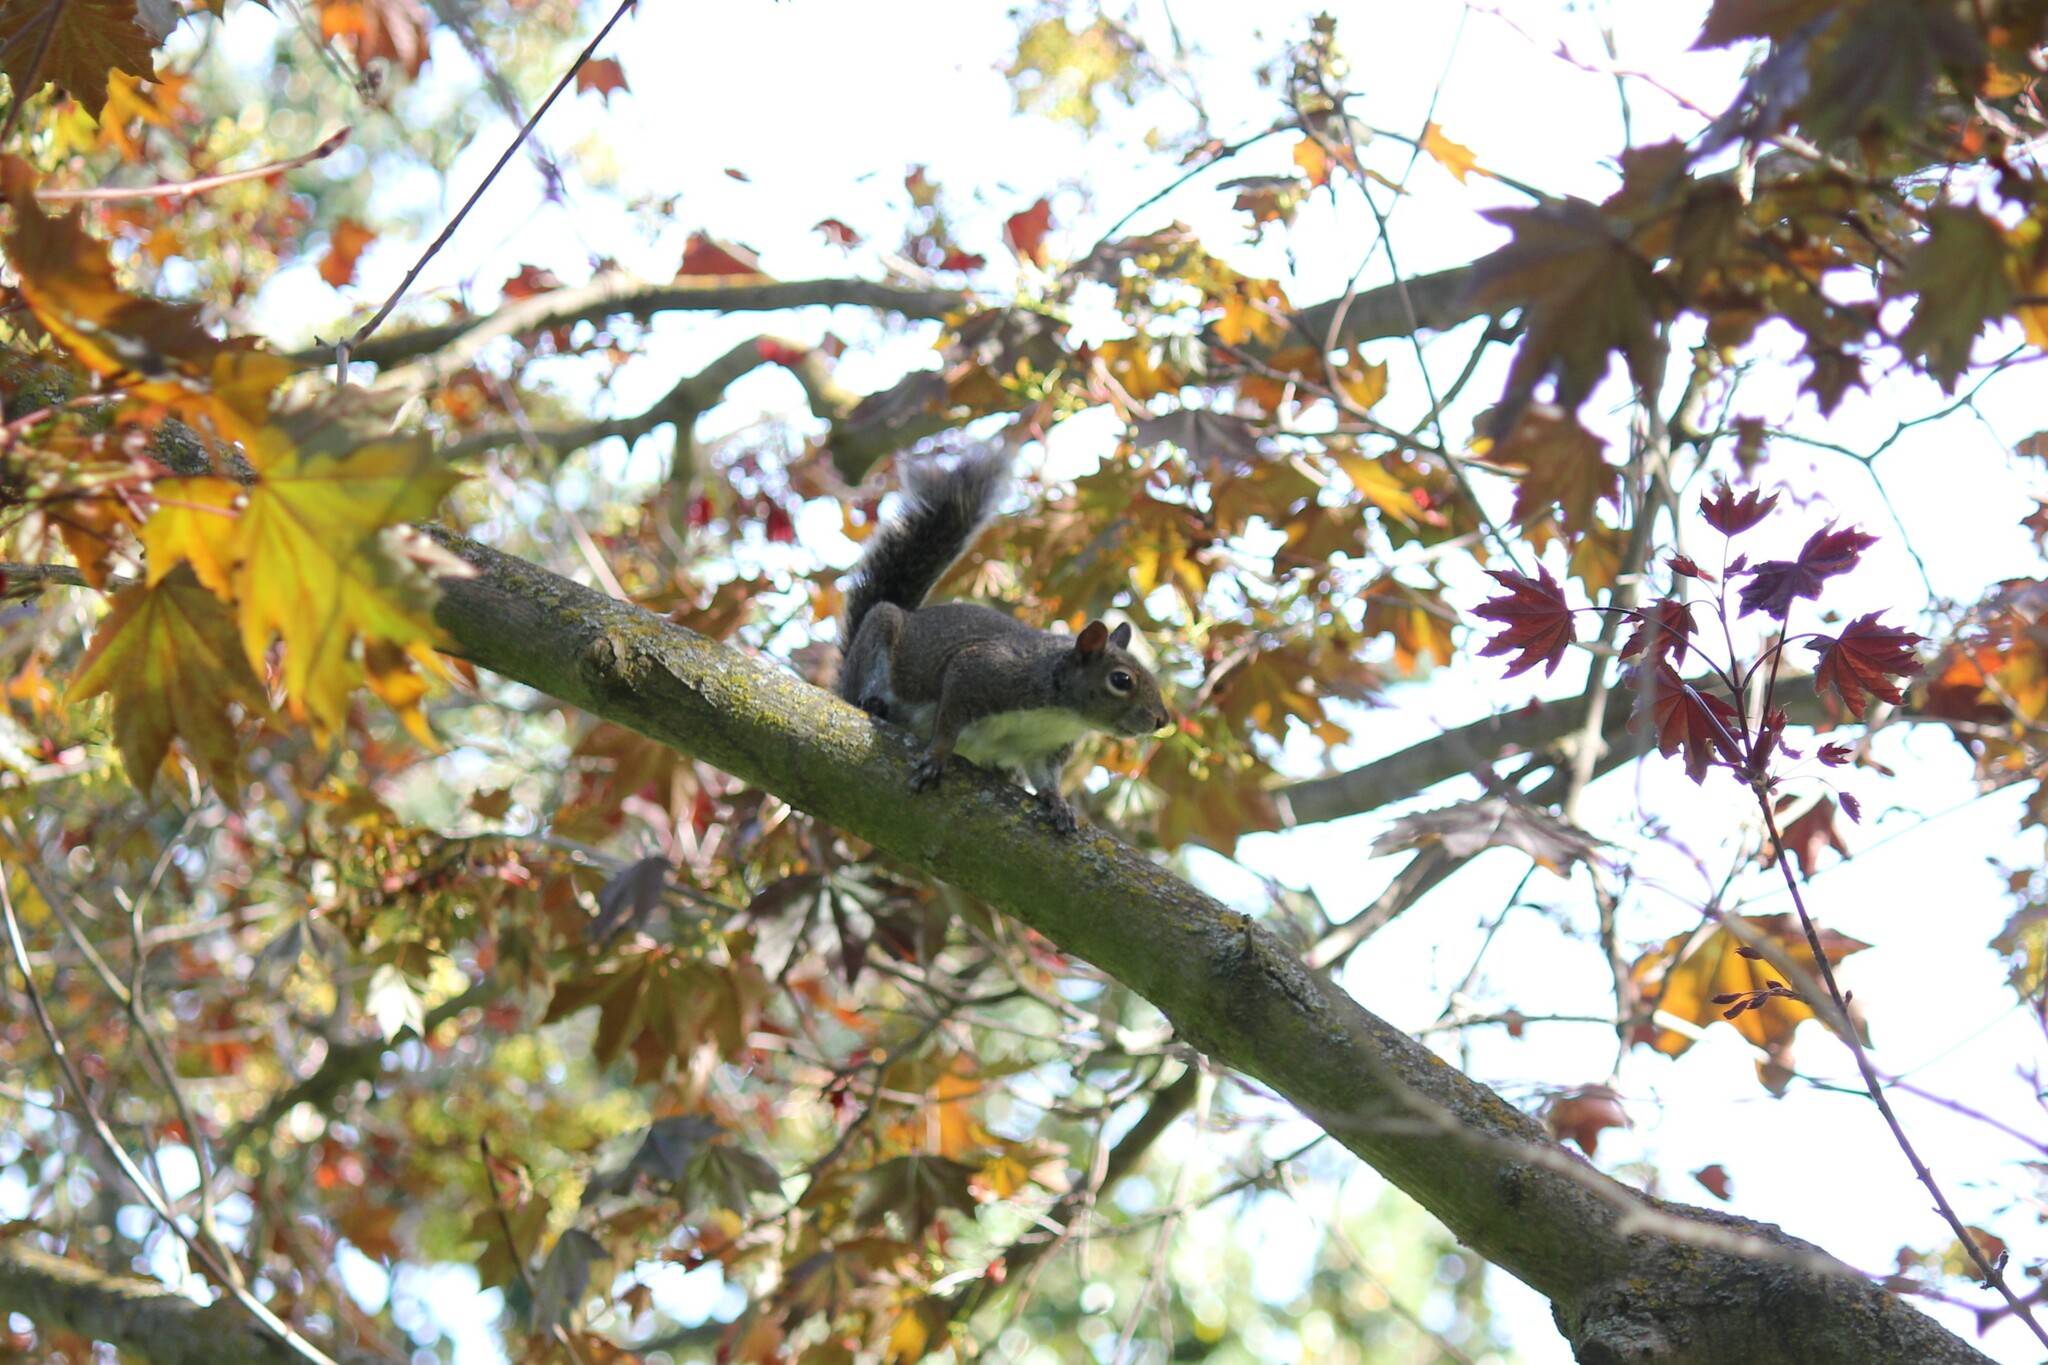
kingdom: Animalia
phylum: Chordata
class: Mammalia
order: Rodentia
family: Sciuridae
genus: Sciurus
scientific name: Sciurus carolinensis
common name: Eastern gray squirrel
